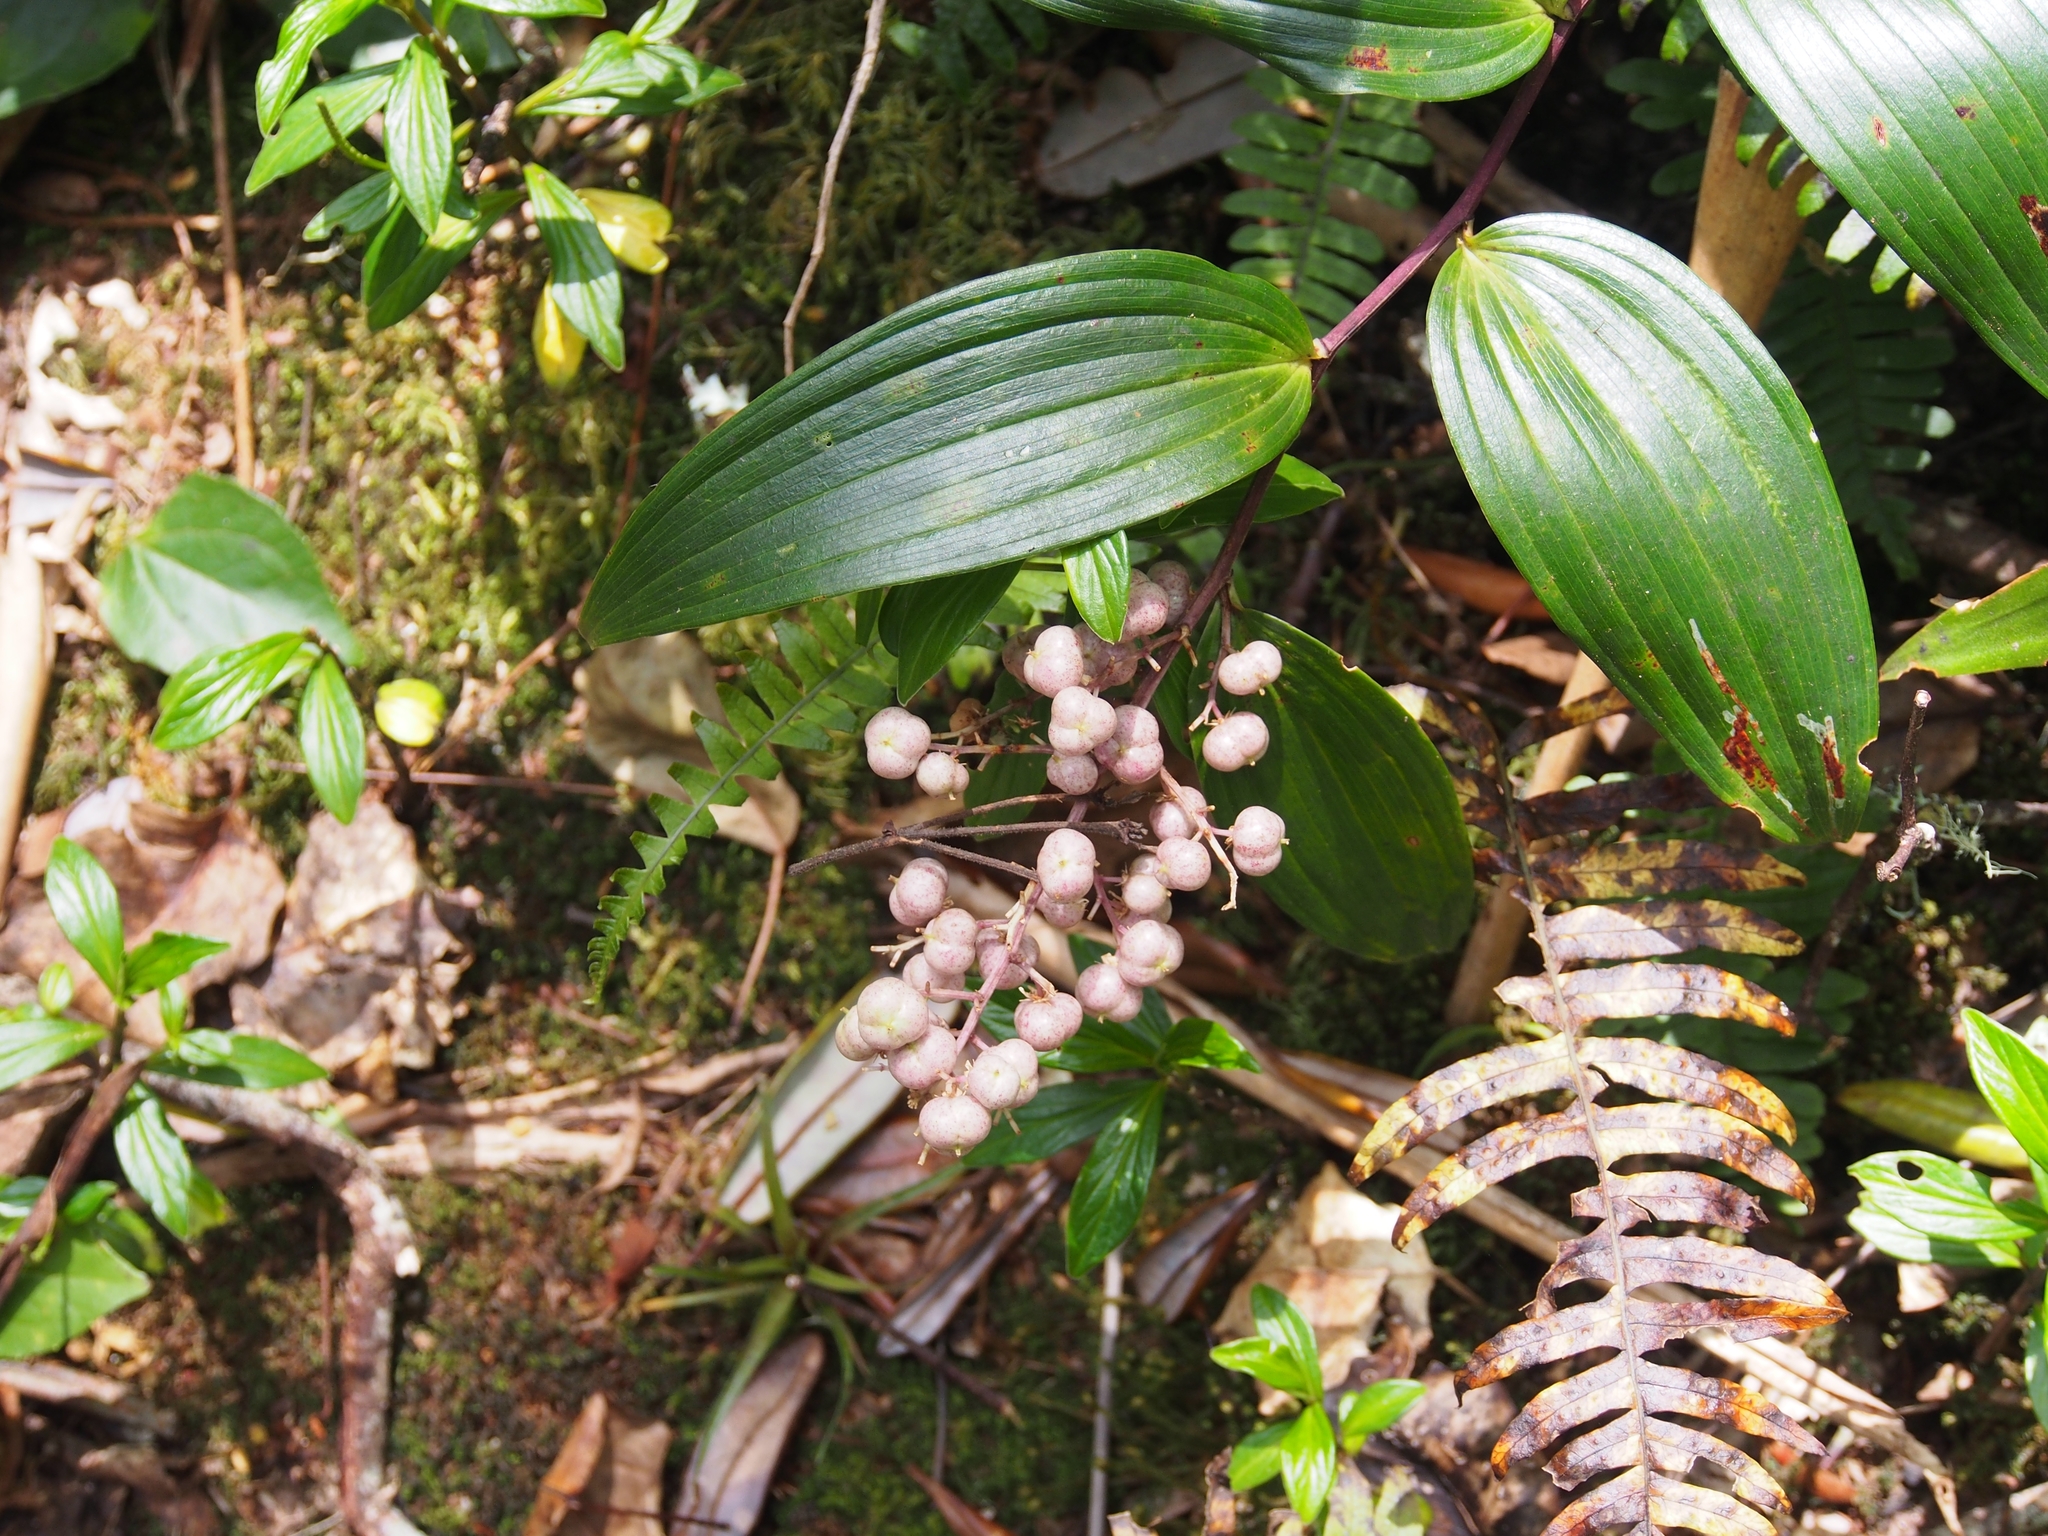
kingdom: Plantae
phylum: Tracheophyta
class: Liliopsida
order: Asparagales
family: Asparagaceae
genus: Maianthemum
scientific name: Maianthemum gigas
